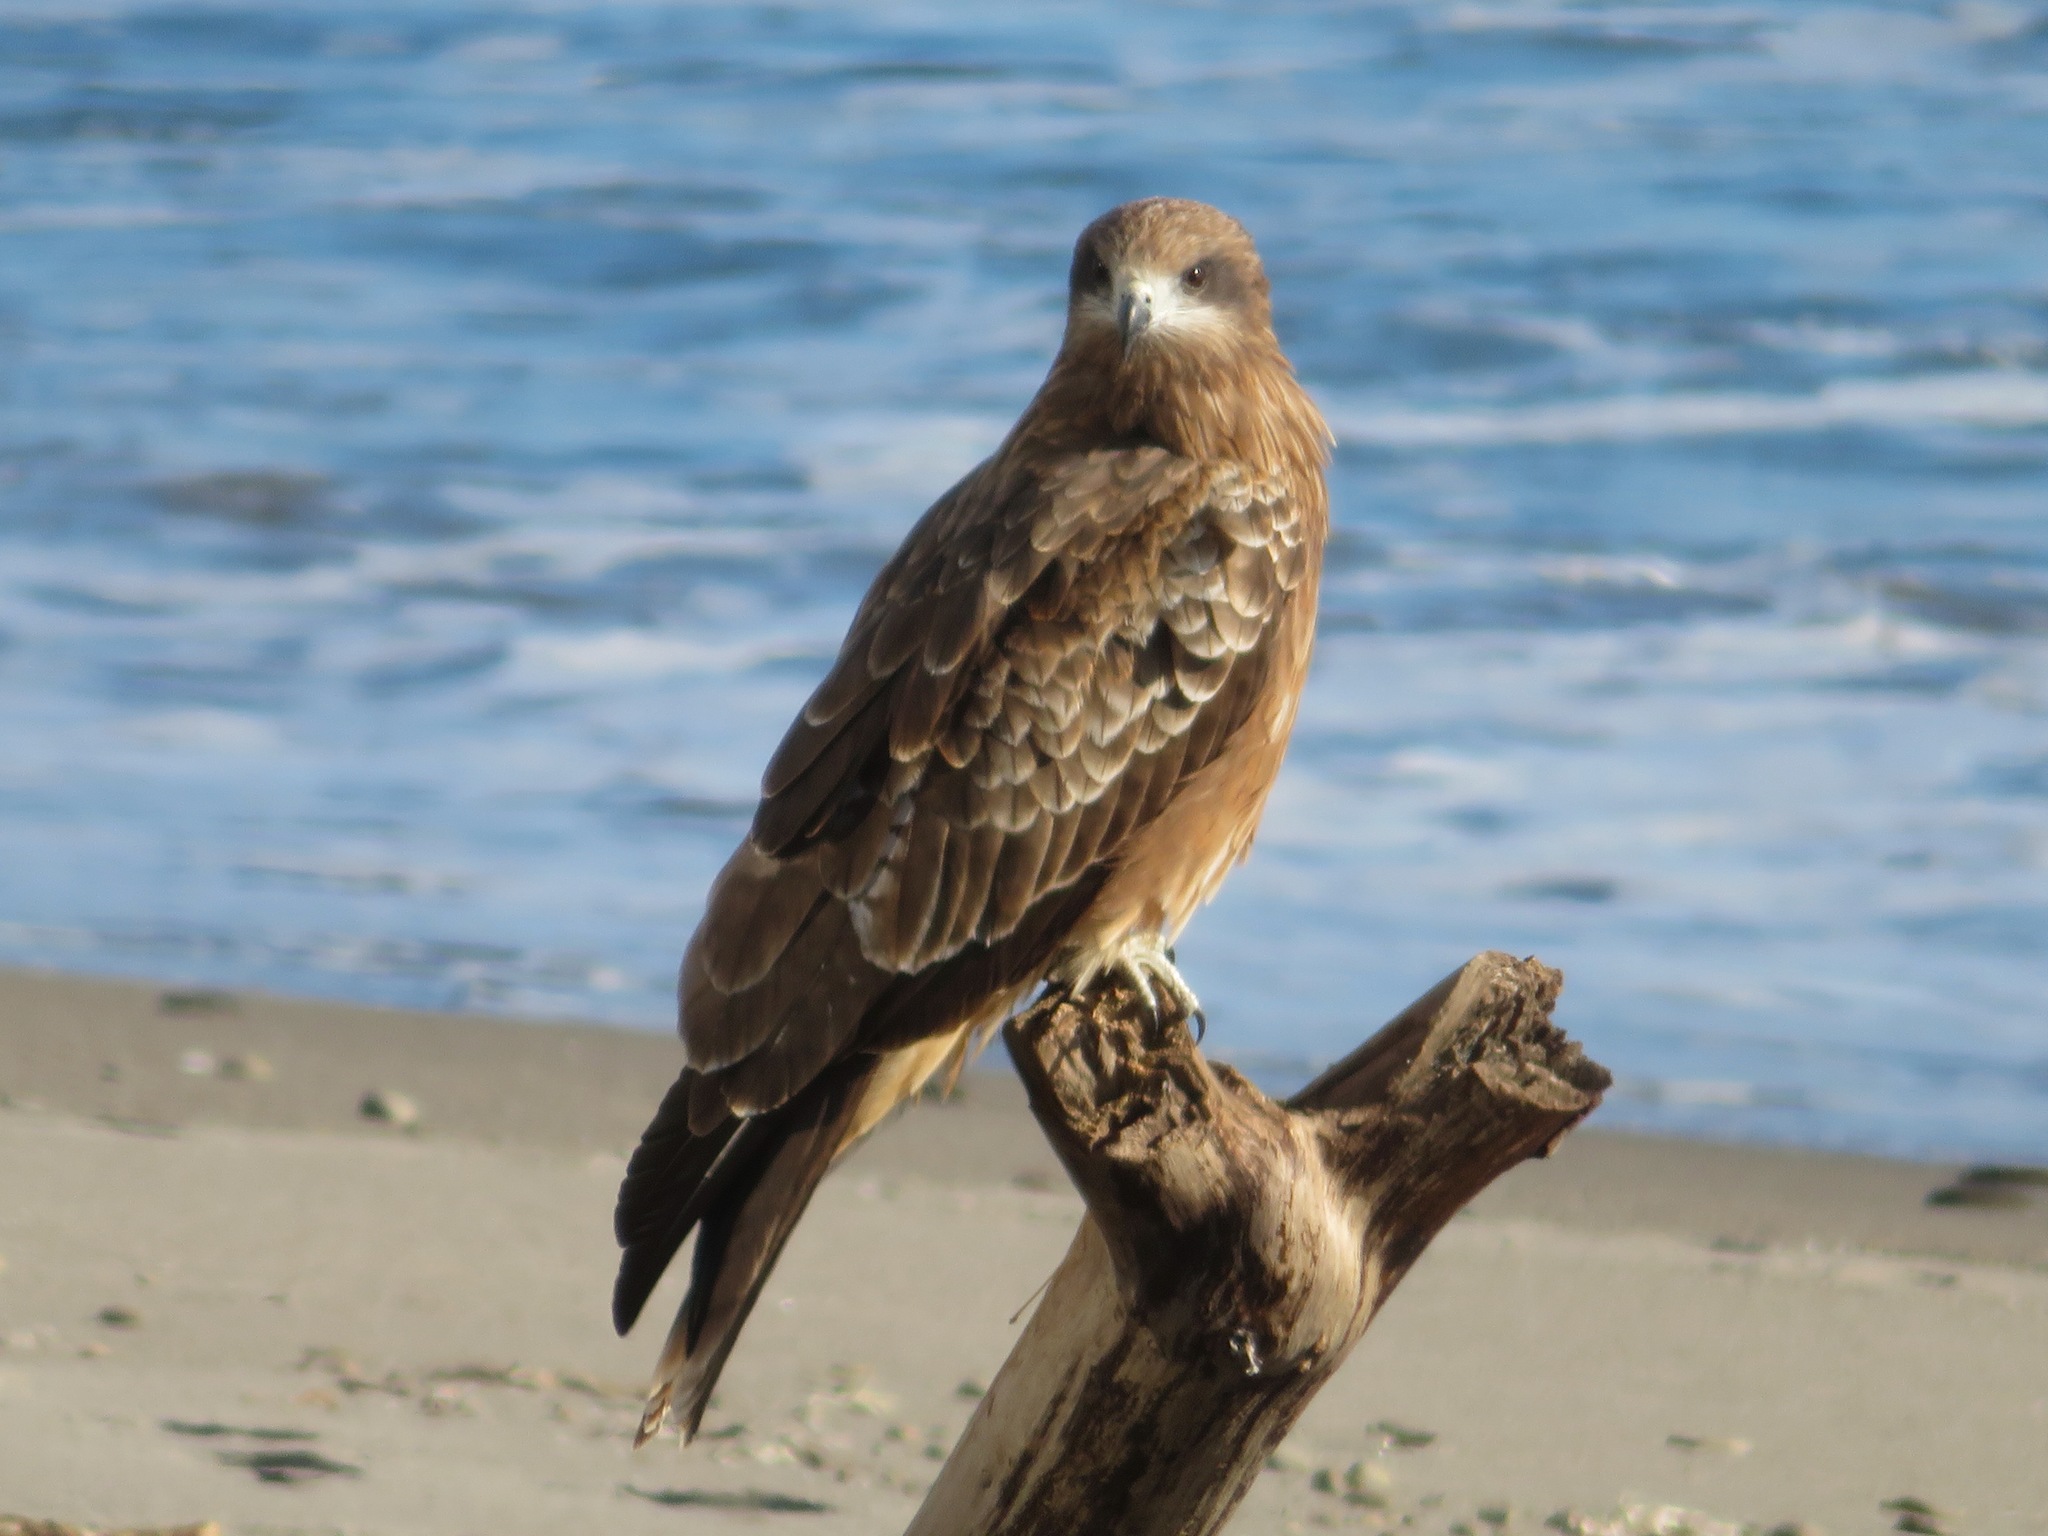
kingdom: Animalia
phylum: Chordata
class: Aves
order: Accipitriformes
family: Accipitridae
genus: Milvus
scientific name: Milvus migrans
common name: Black kite
